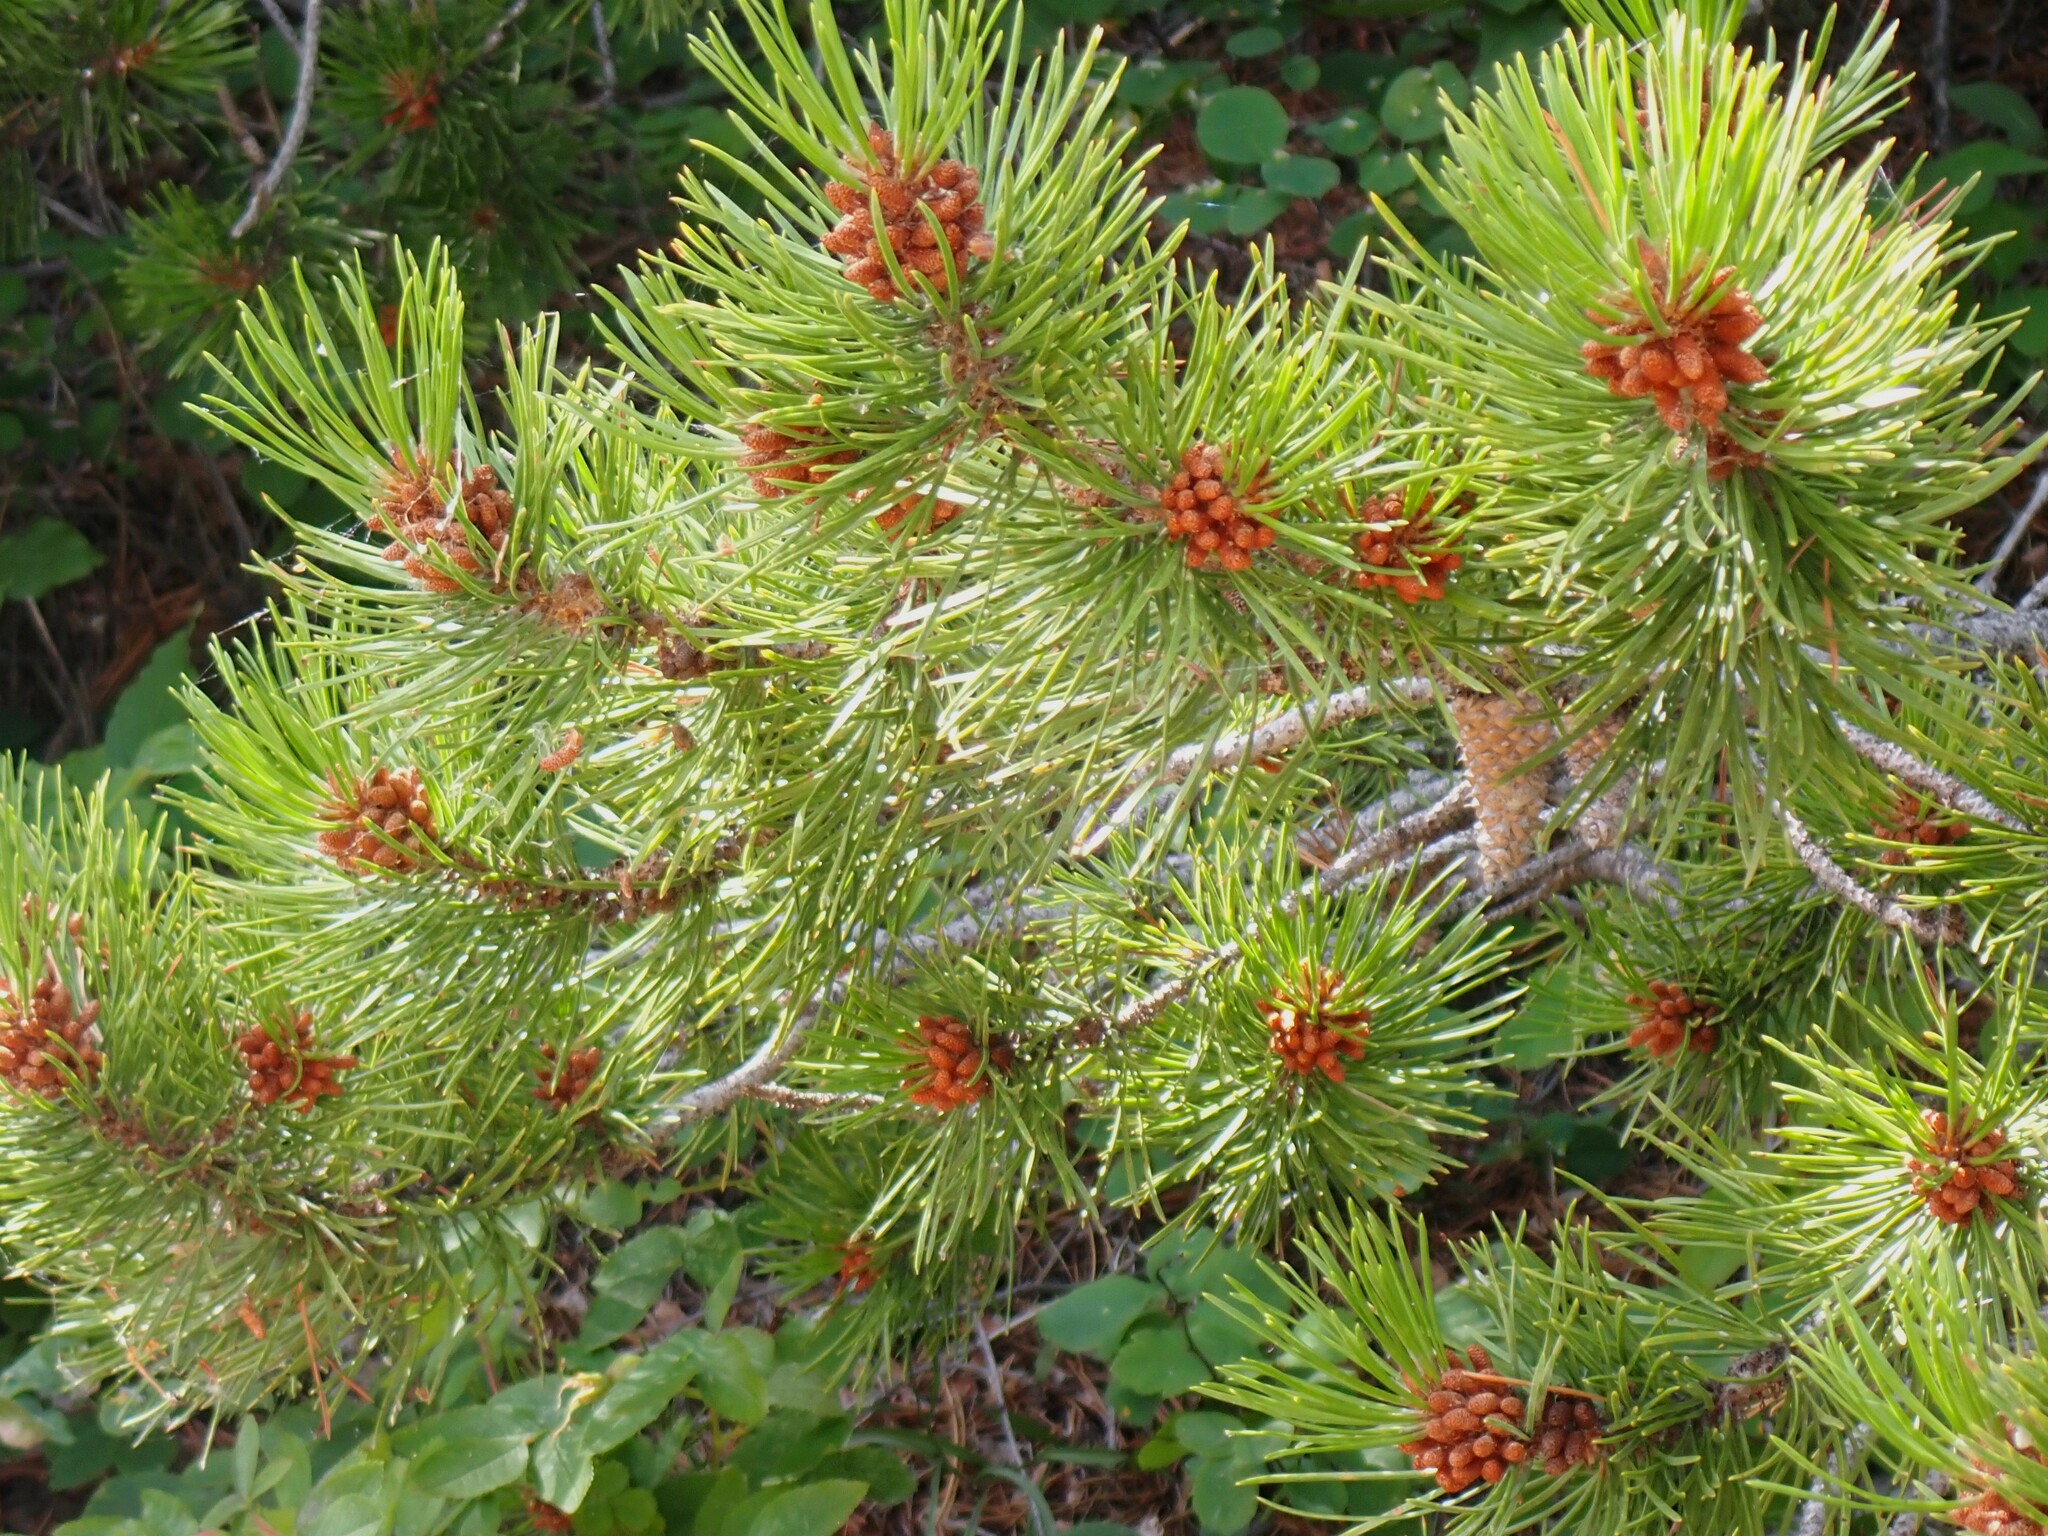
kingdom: Plantae
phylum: Tracheophyta
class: Pinopsida
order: Pinales
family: Pinaceae
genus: Pinus
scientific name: Pinus contorta
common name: Lodgepole pine
